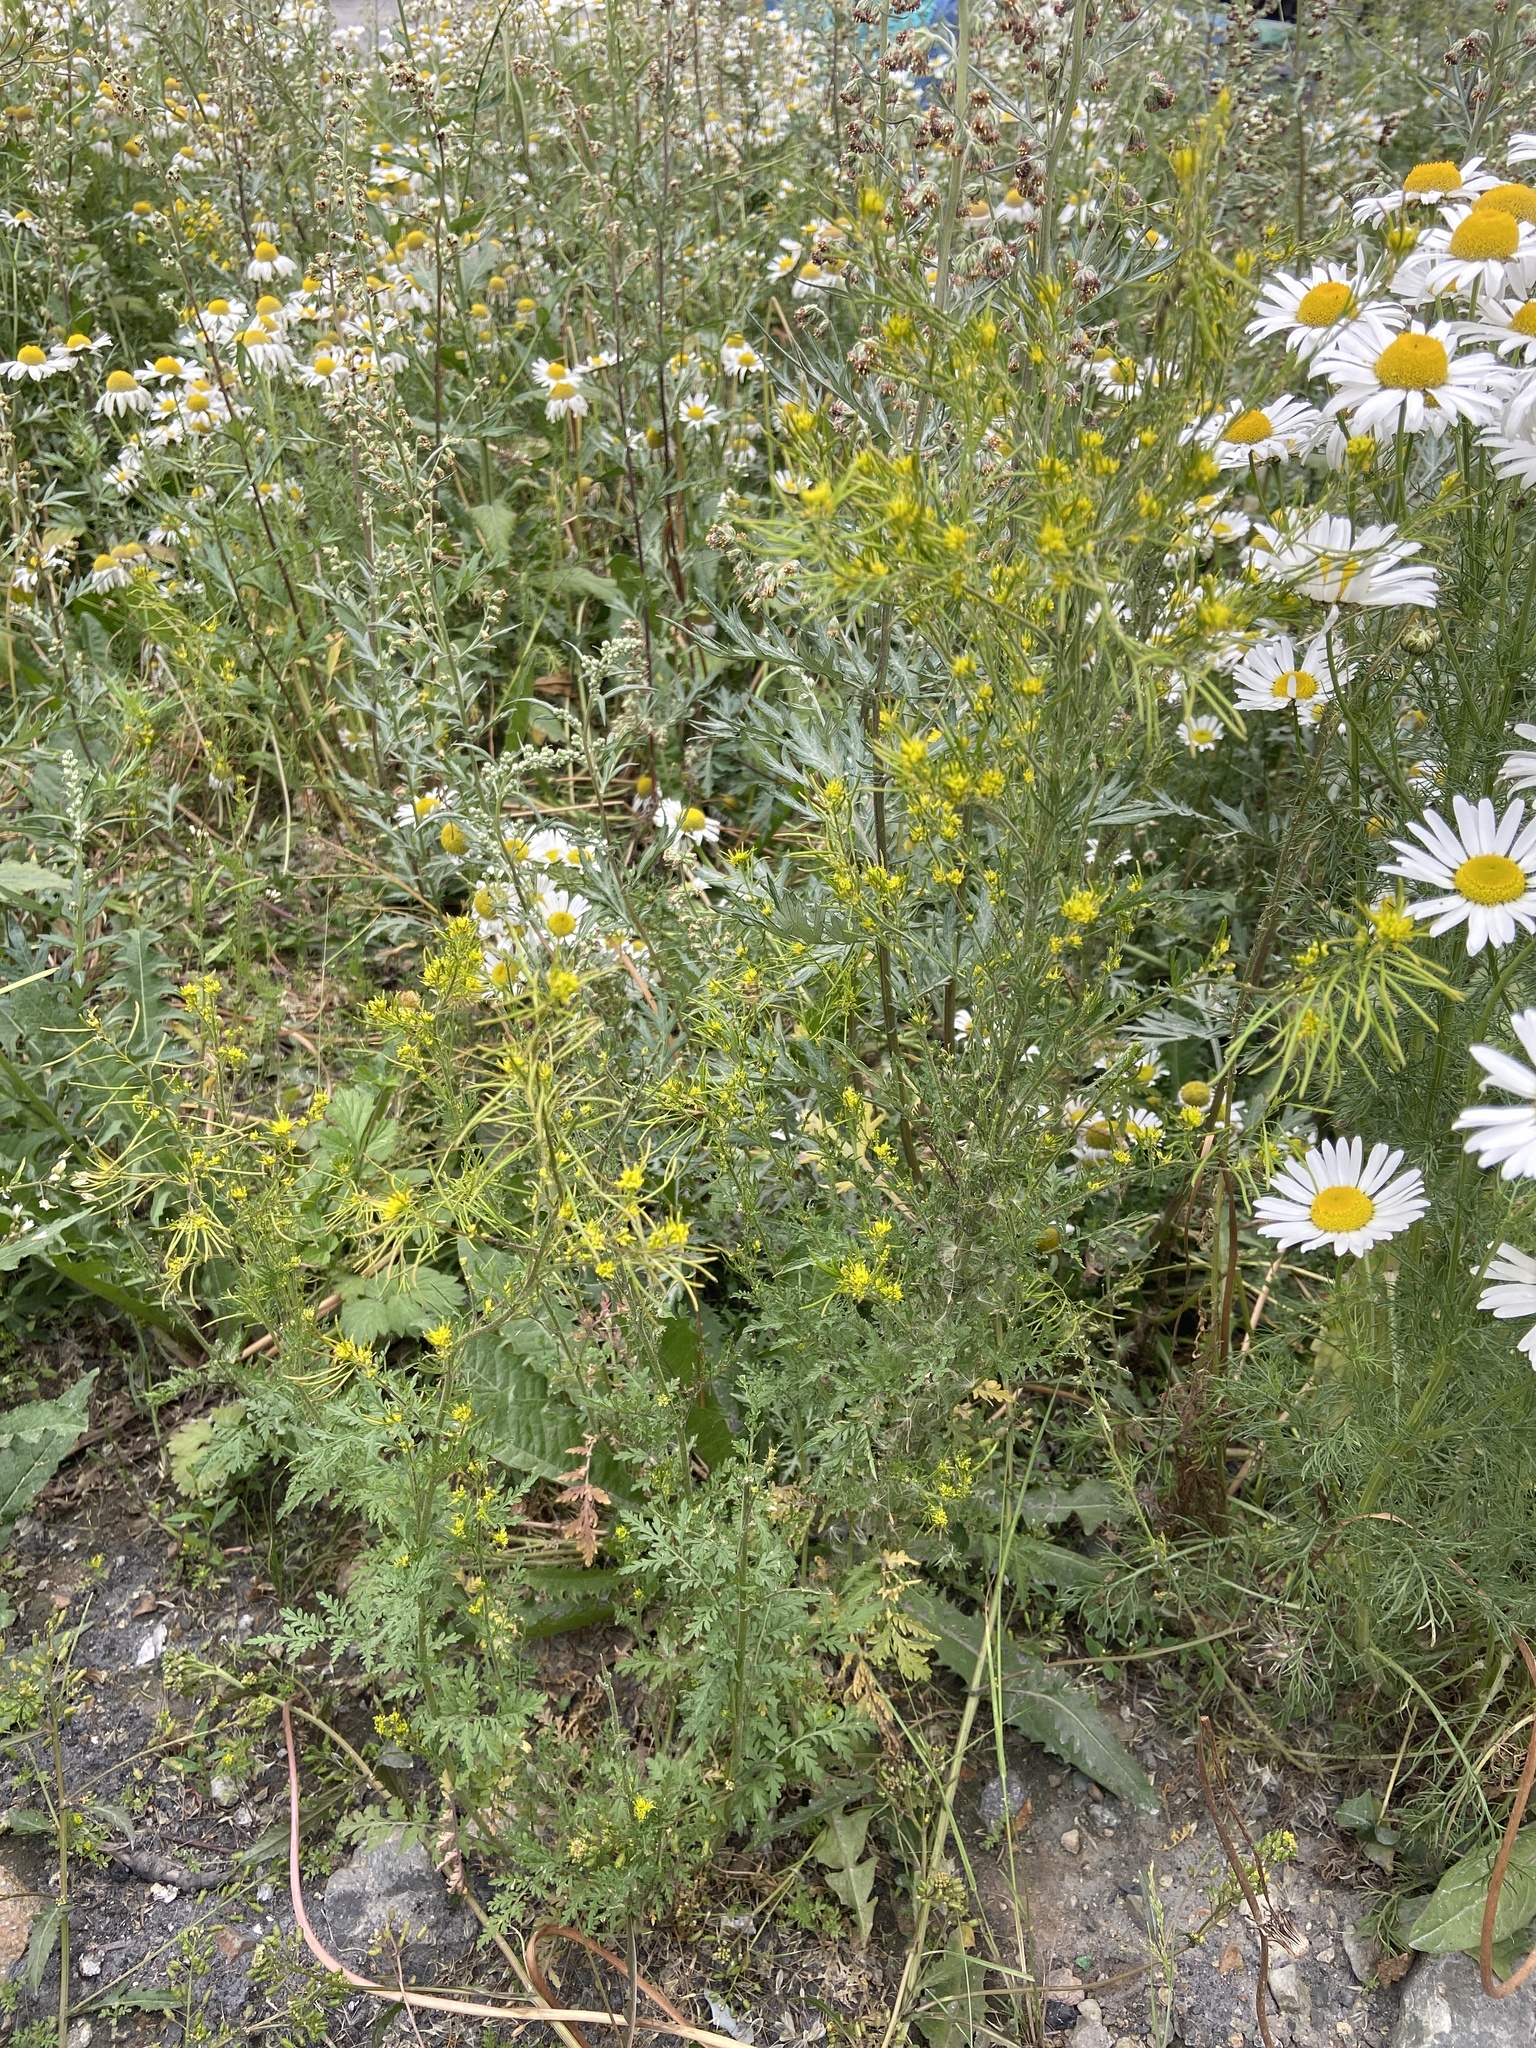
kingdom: Plantae
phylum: Tracheophyta
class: Magnoliopsida
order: Brassicales
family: Brassicaceae
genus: Descurainia
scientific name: Descurainia sophioides
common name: Northern tansy mustard
